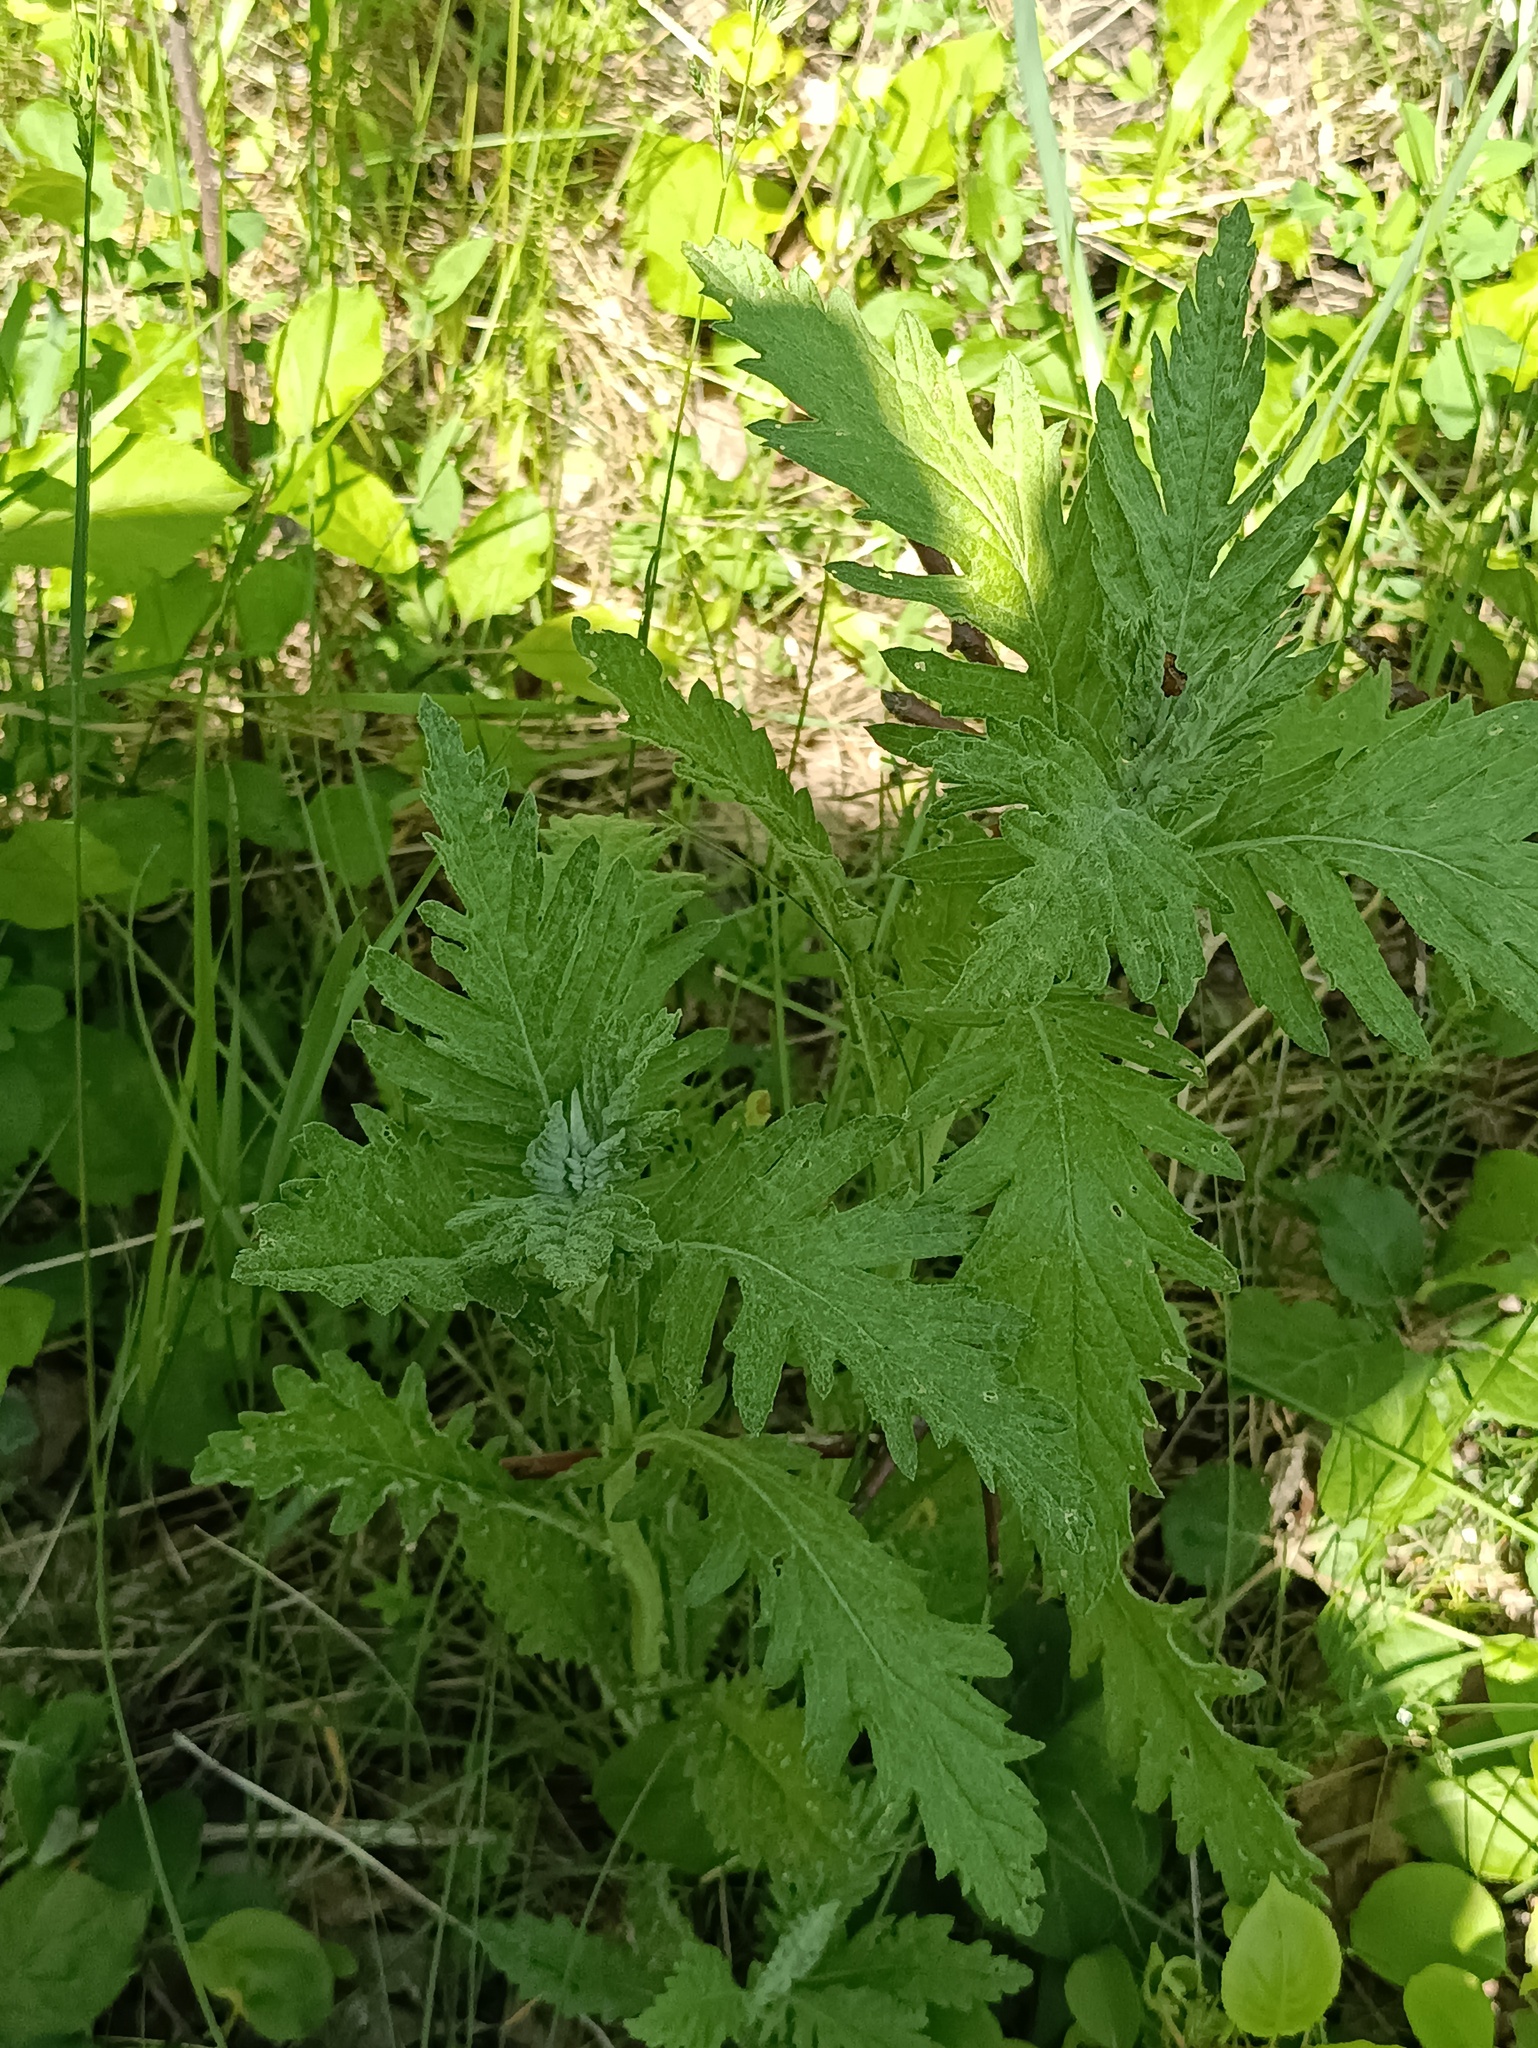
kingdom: Plantae
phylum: Tracheophyta
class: Magnoliopsida
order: Asterales
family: Asteraceae
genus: Jacobaea
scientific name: Jacobaea erucifolia
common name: Hoary ragwort
